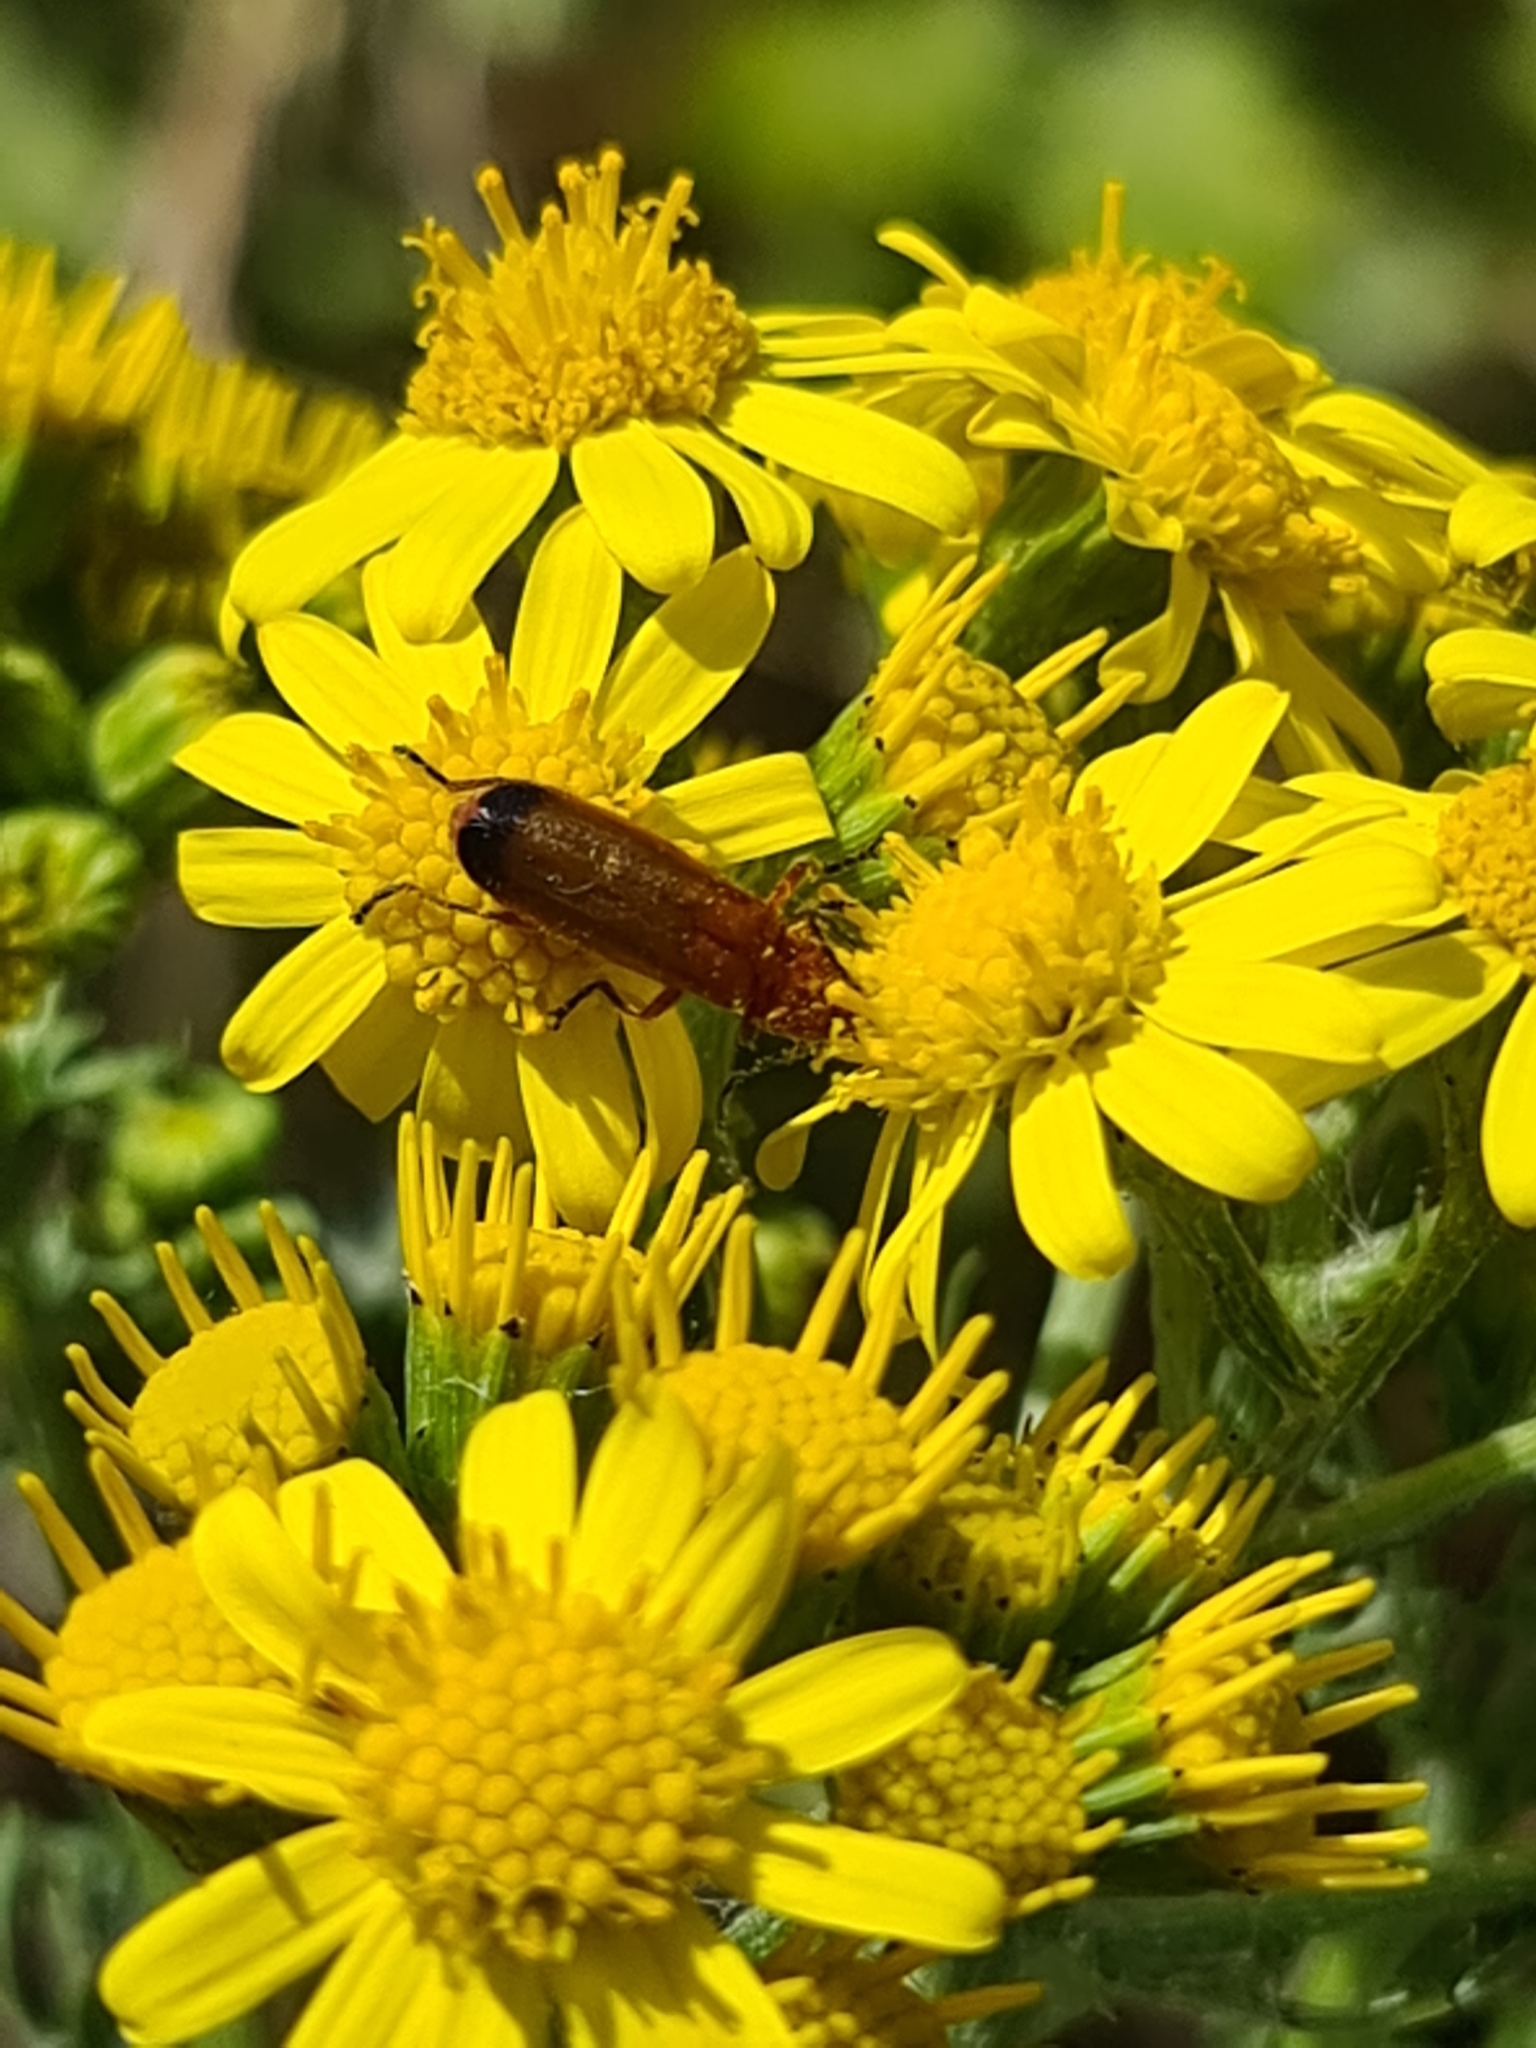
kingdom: Animalia
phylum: Arthropoda
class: Insecta
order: Coleoptera
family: Cantharidae
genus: Rhagonycha
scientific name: Rhagonycha fulva
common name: Common red soldier beetle
